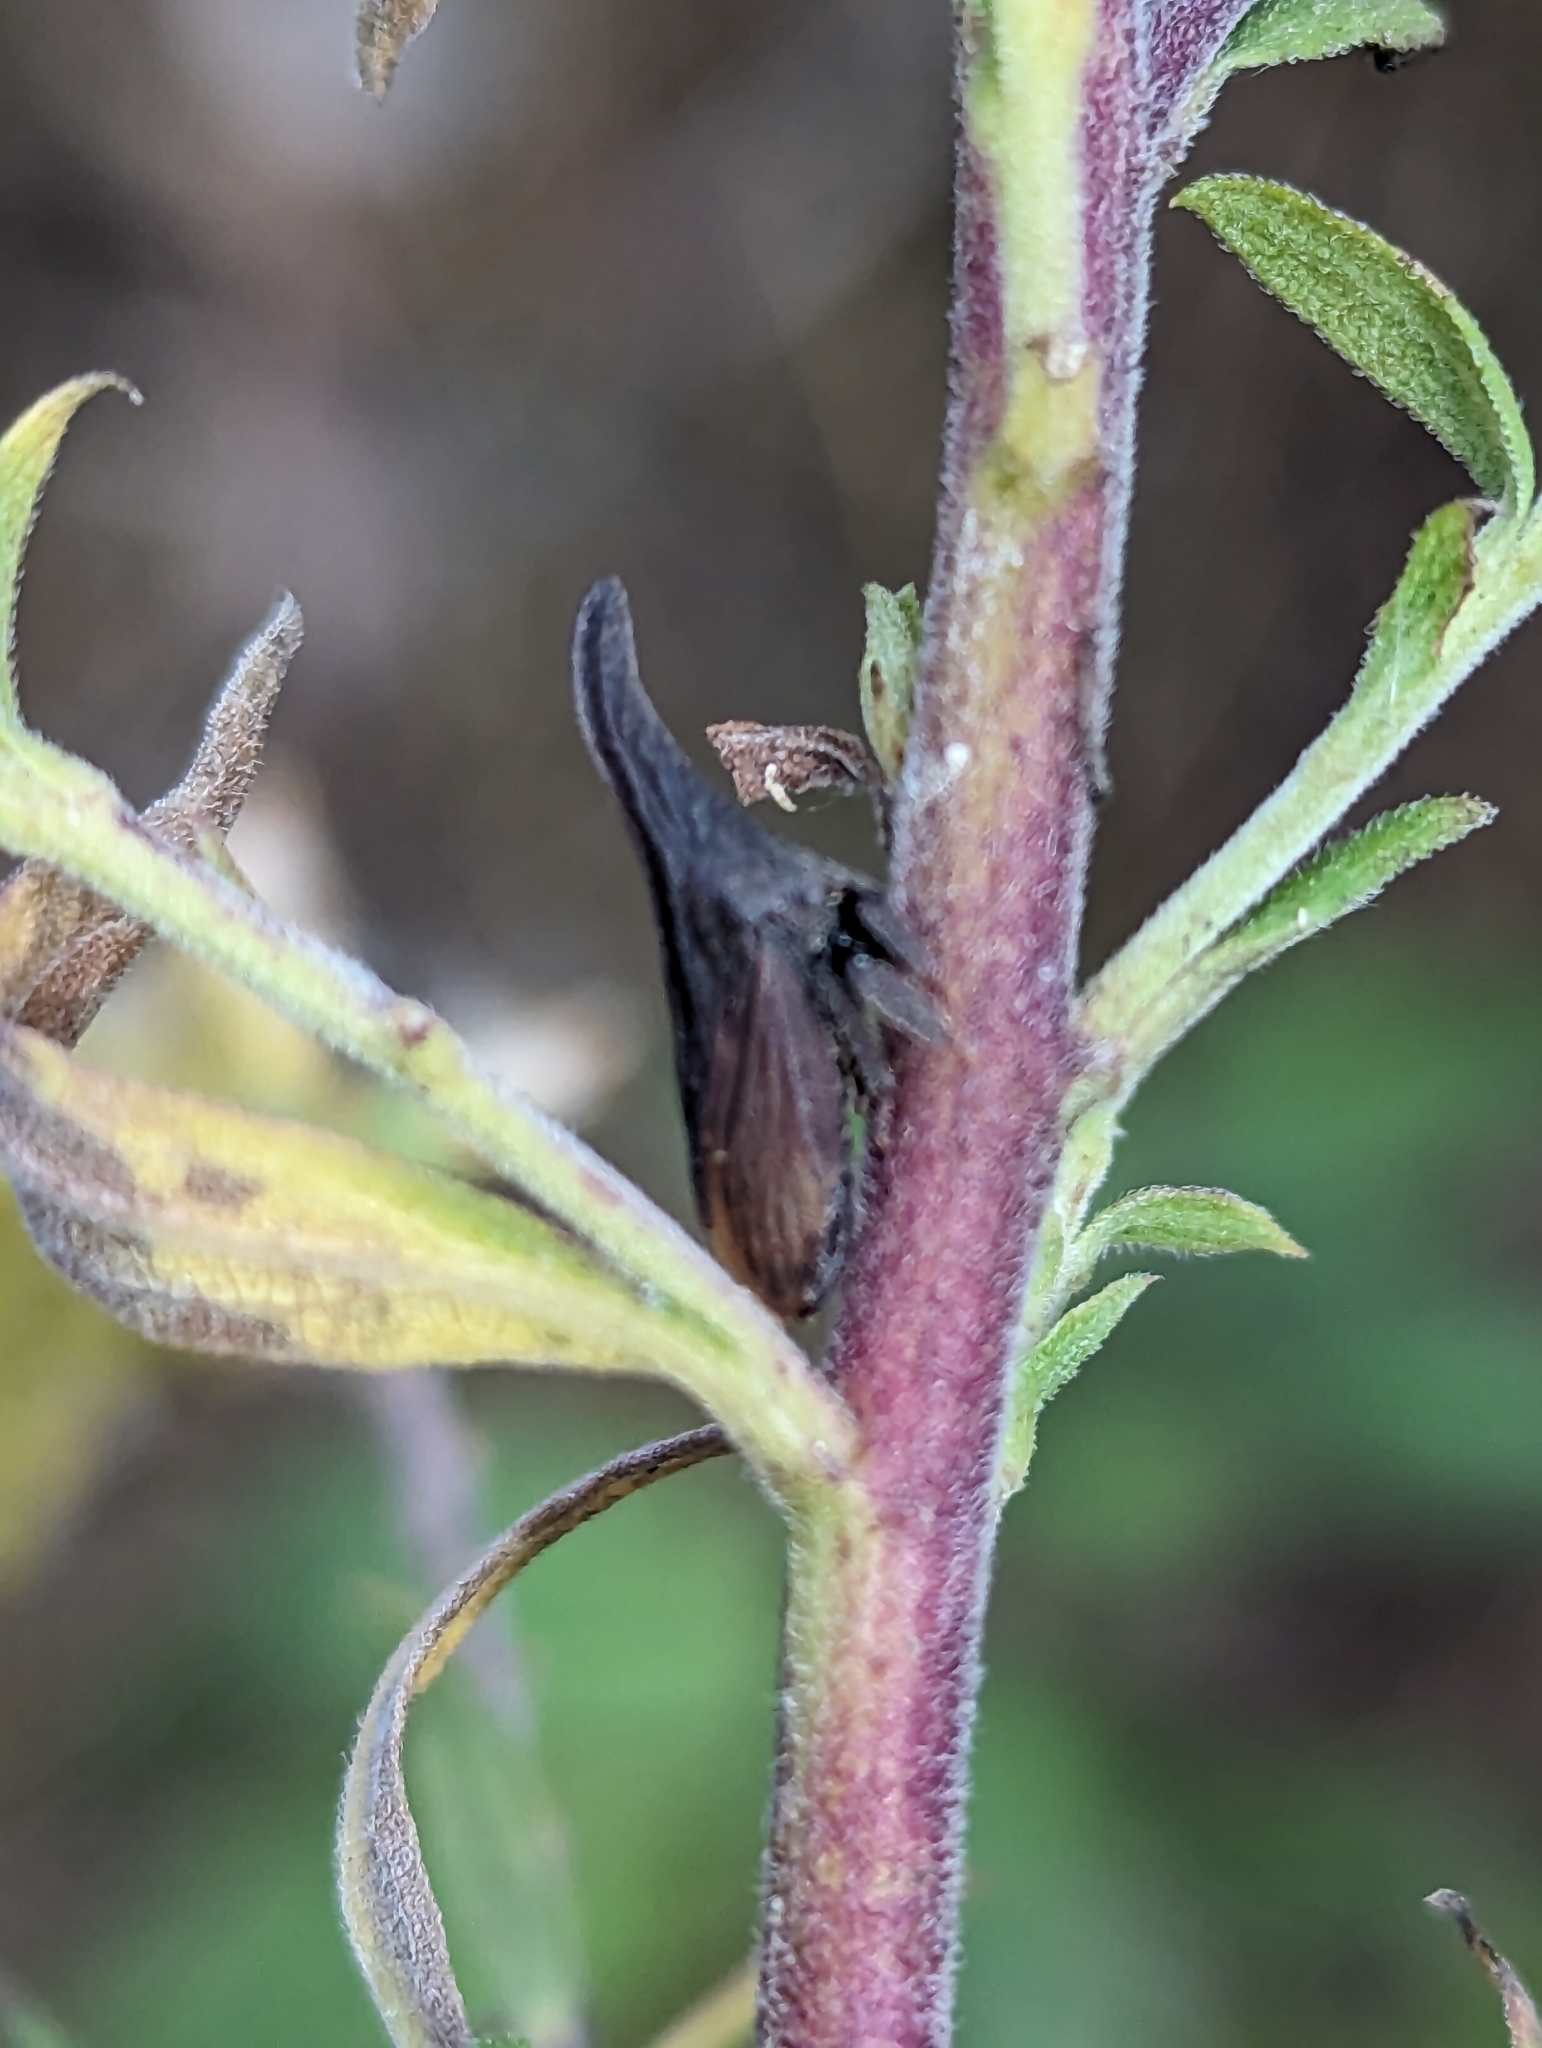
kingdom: Animalia
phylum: Arthropoda
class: Insecta
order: Hemiptera
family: Membracidae
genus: Enchenopa
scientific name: Enchenopa latipes
